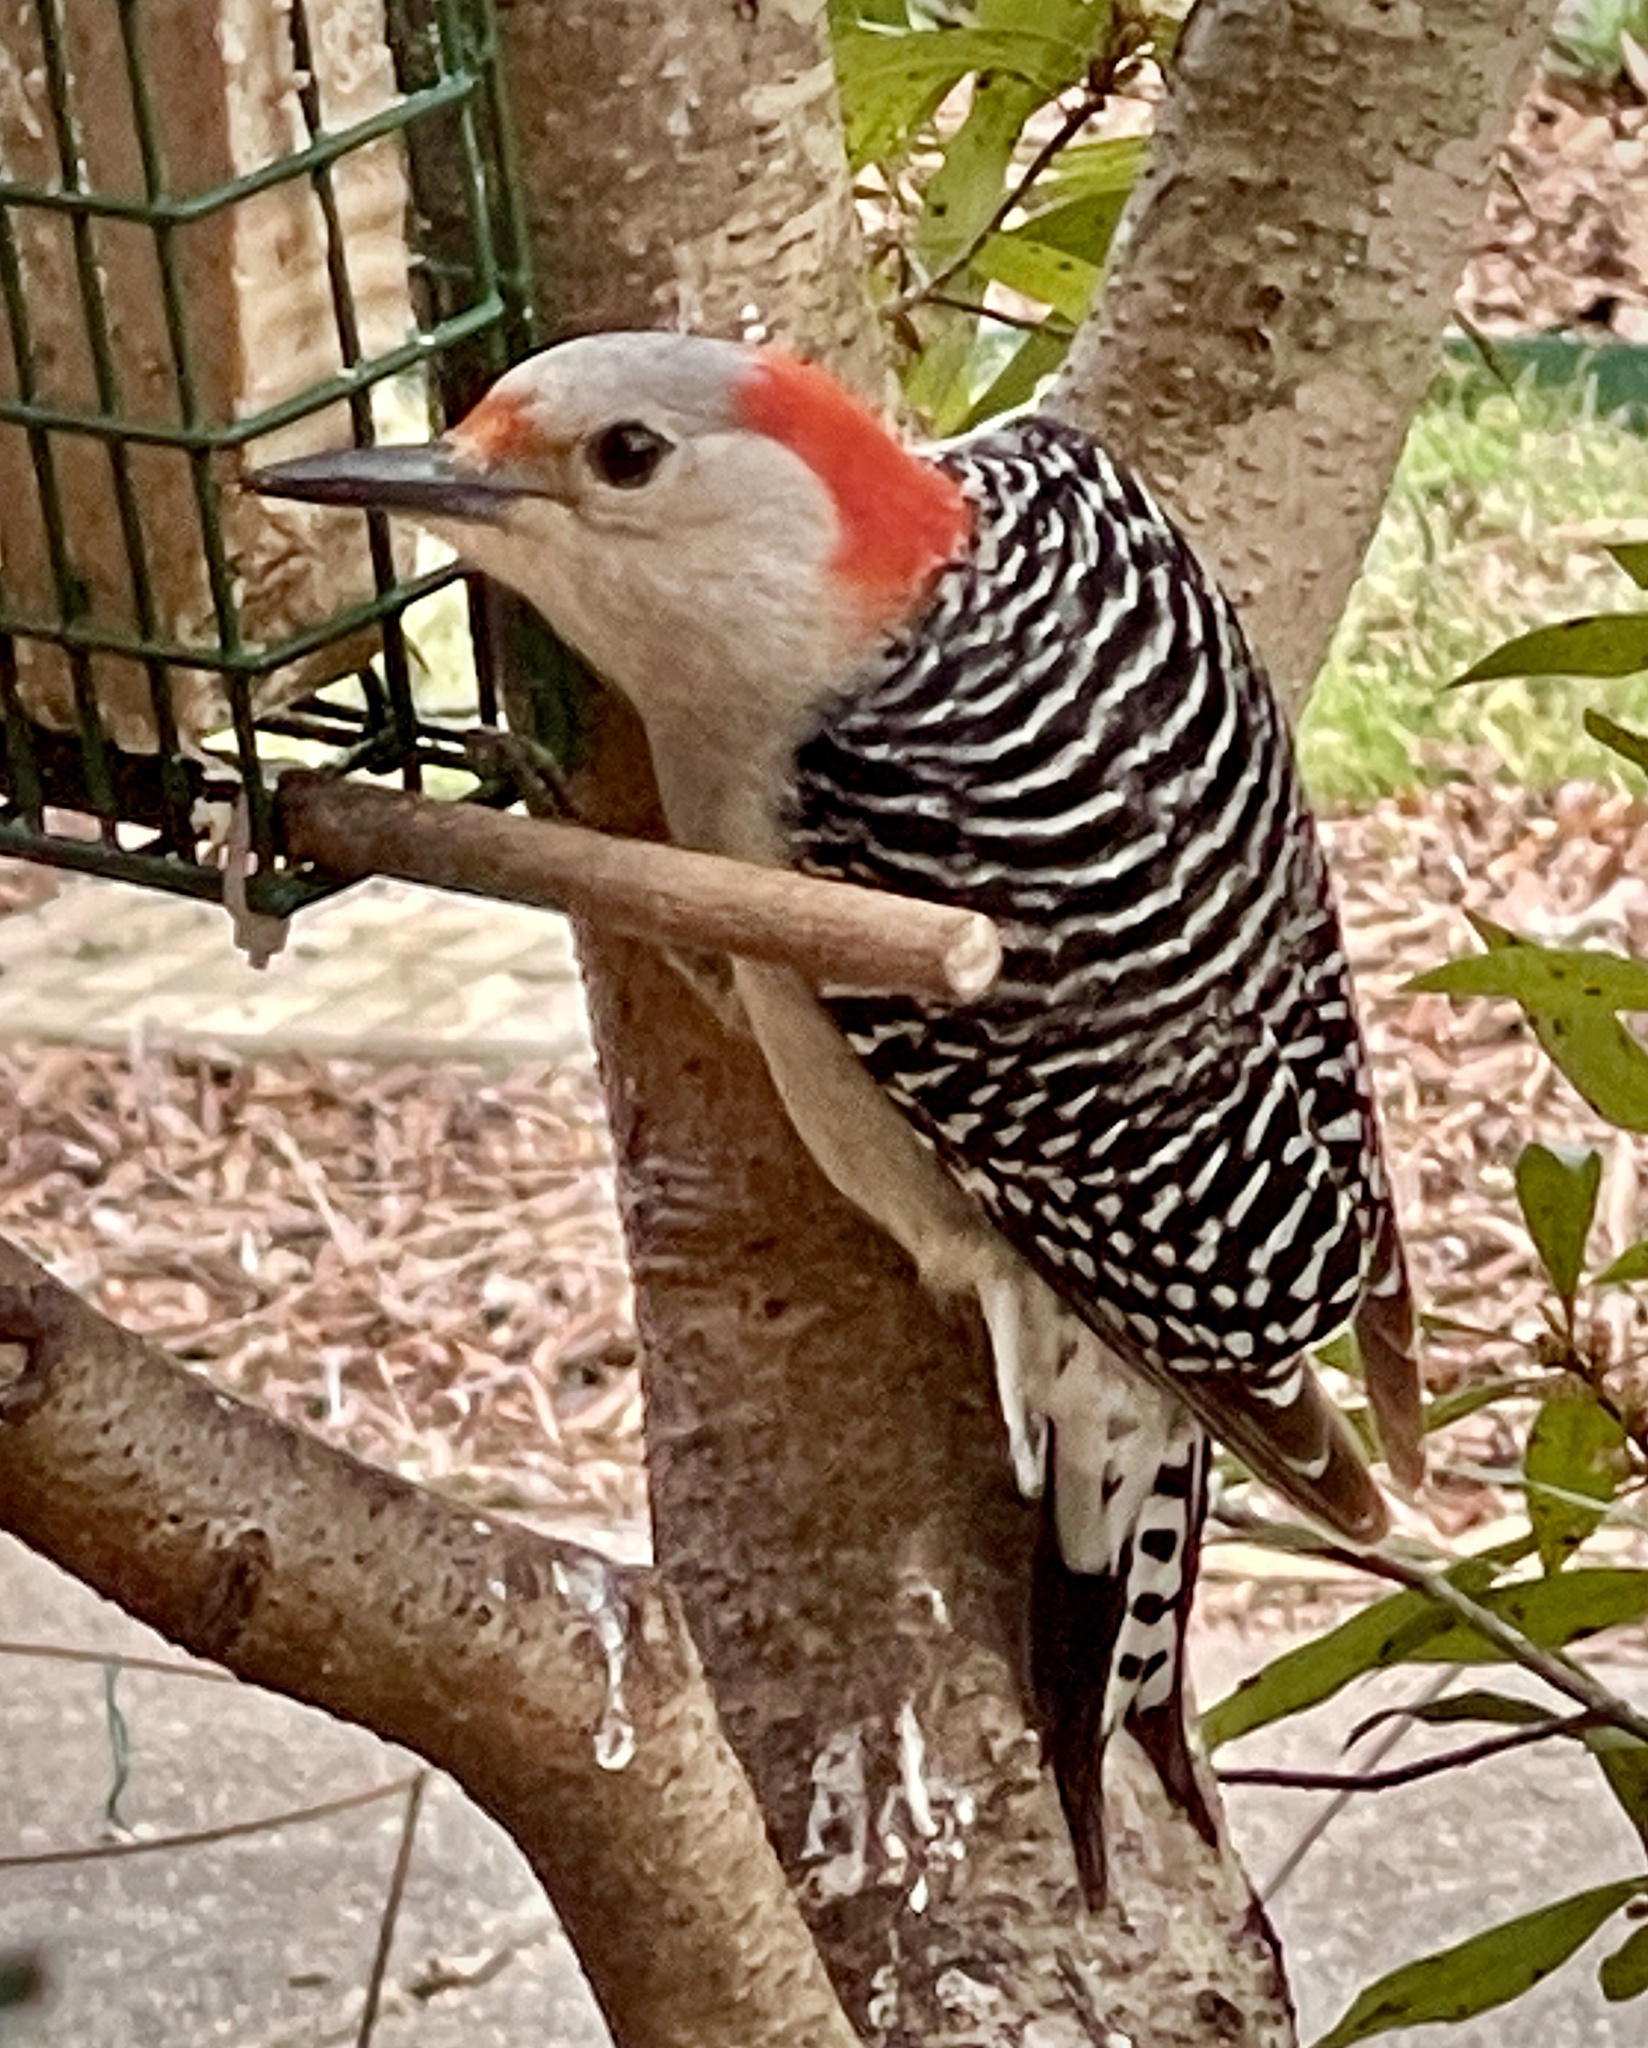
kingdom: Animalia
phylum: Chordata
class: Aves
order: Piciformes
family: Picidae
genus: Melanerpes
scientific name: Melanerpes carolinus
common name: Red-bellied woodpecker
